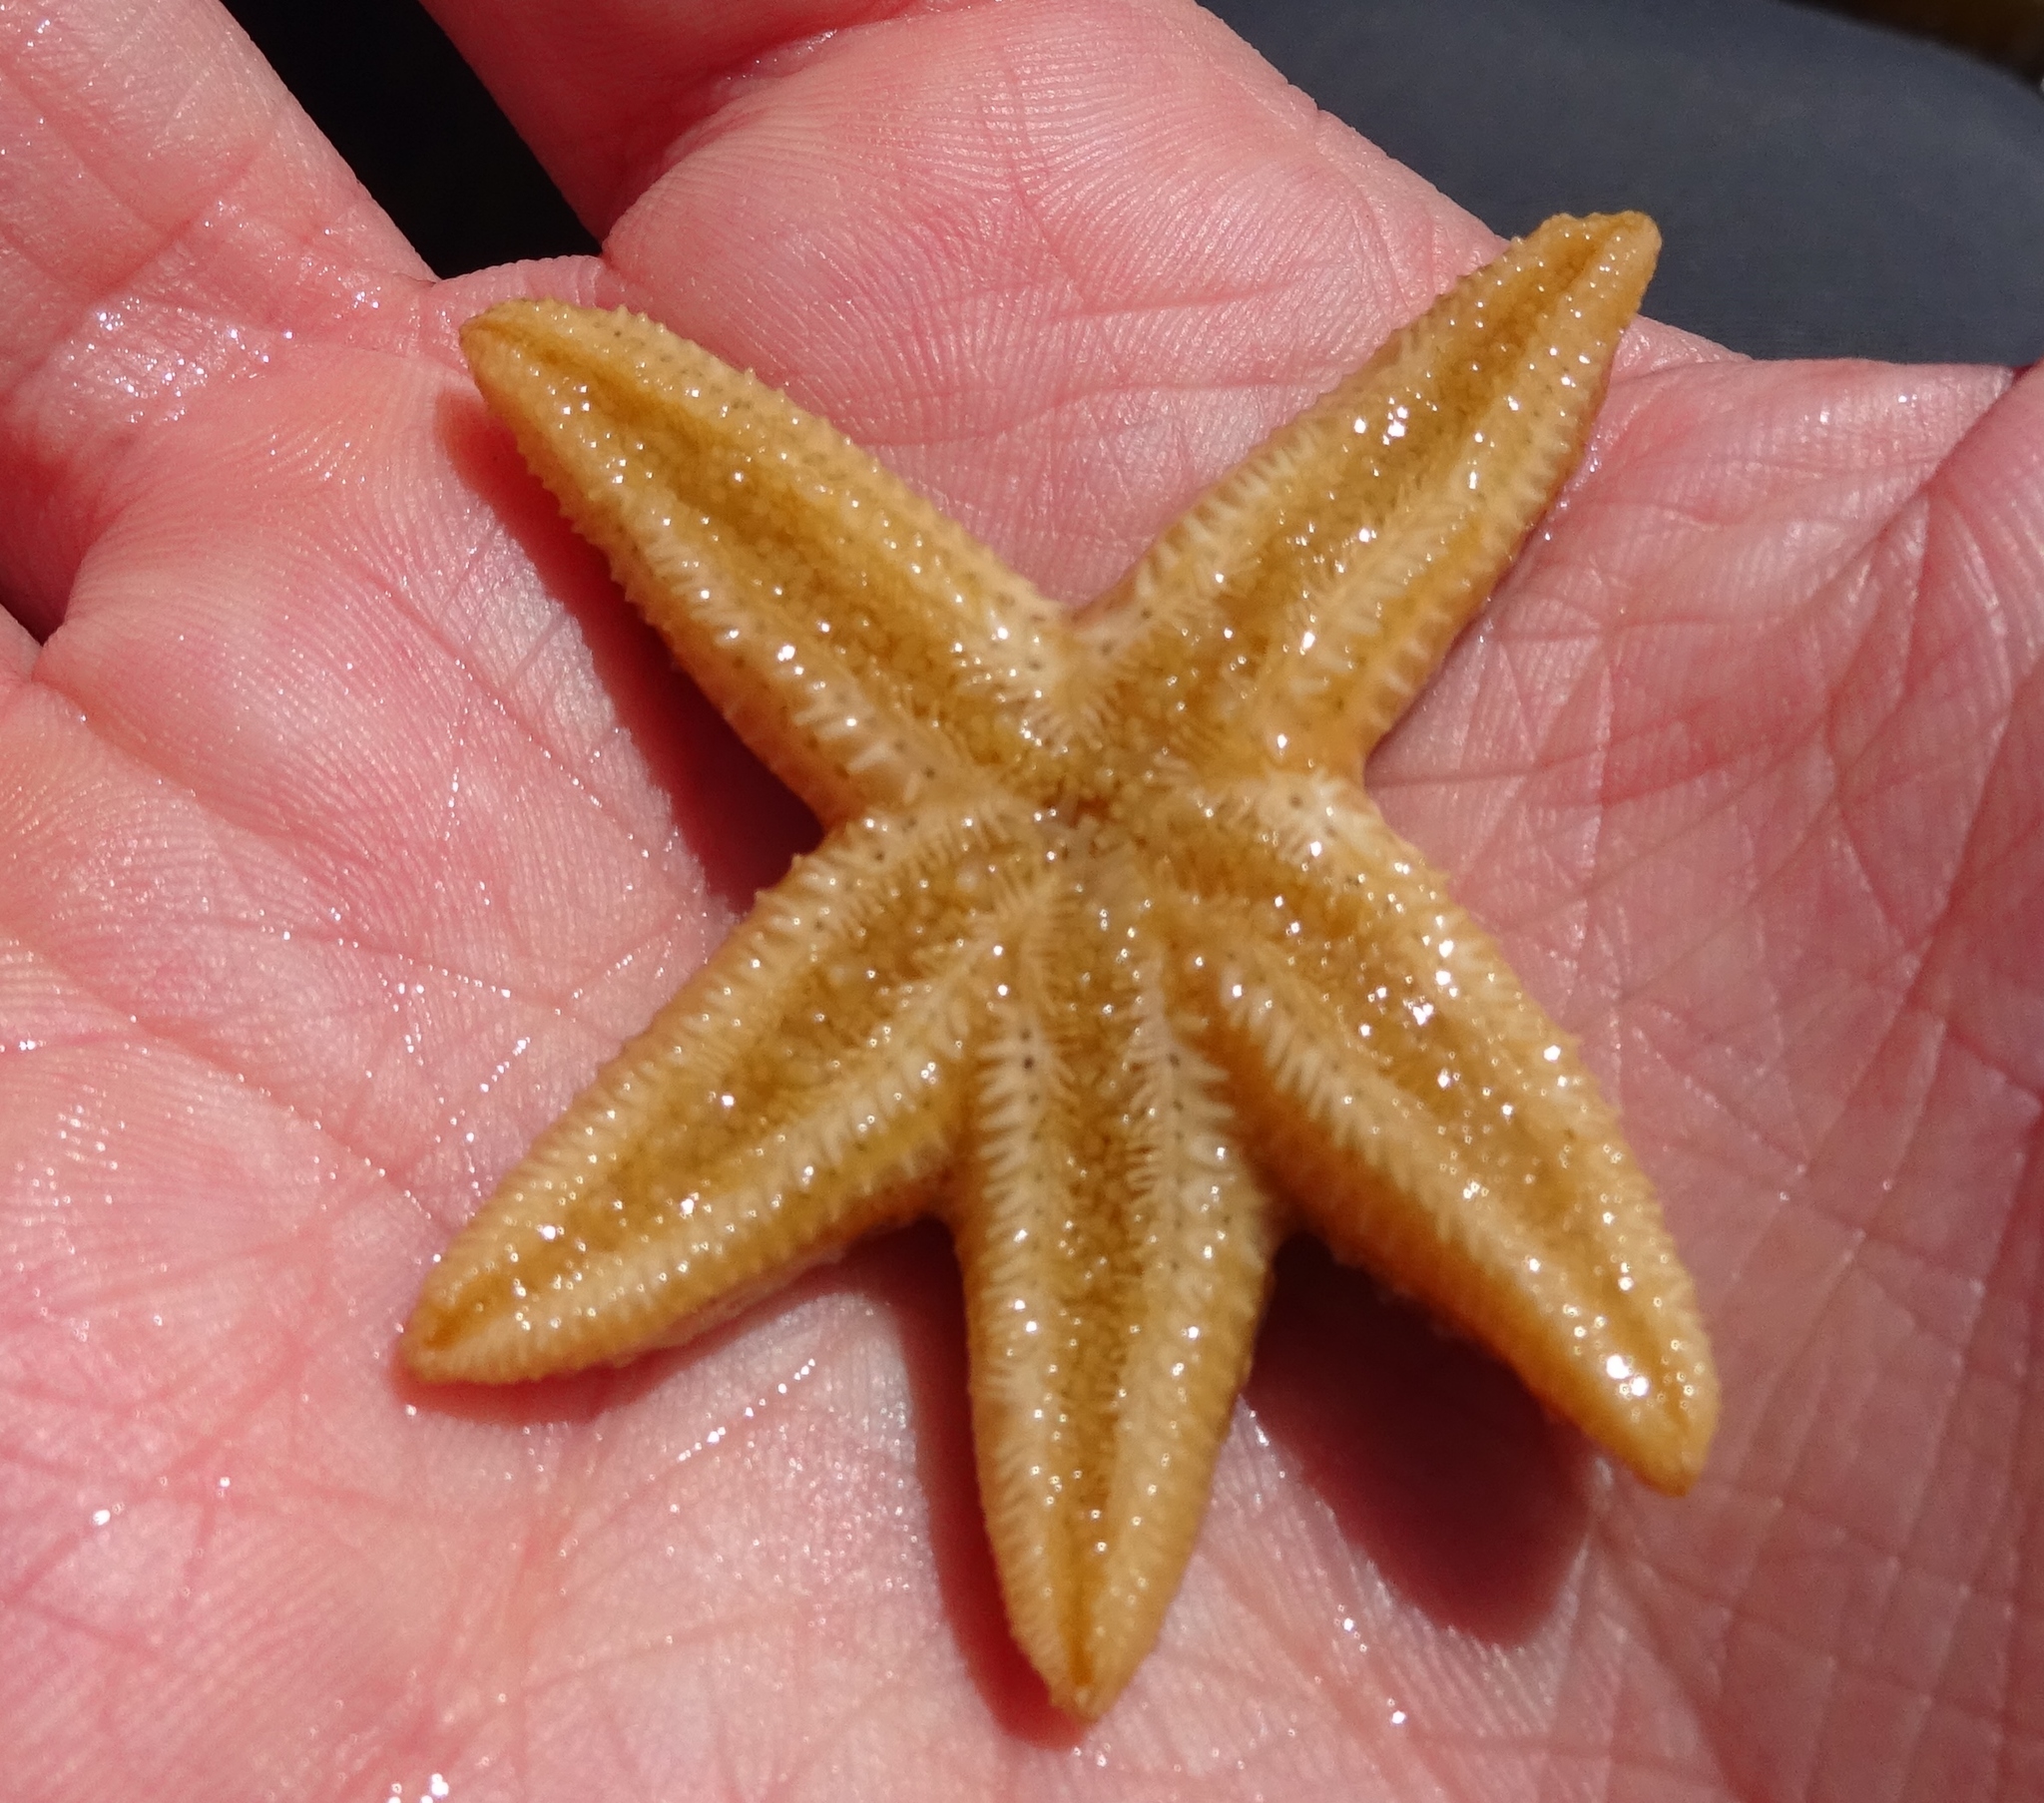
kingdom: Animalia
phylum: Echinodermata
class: Asteroidea
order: Forcipulatida
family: Asteriidae
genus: Asterias
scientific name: Asterias rubens
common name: Common starfish
